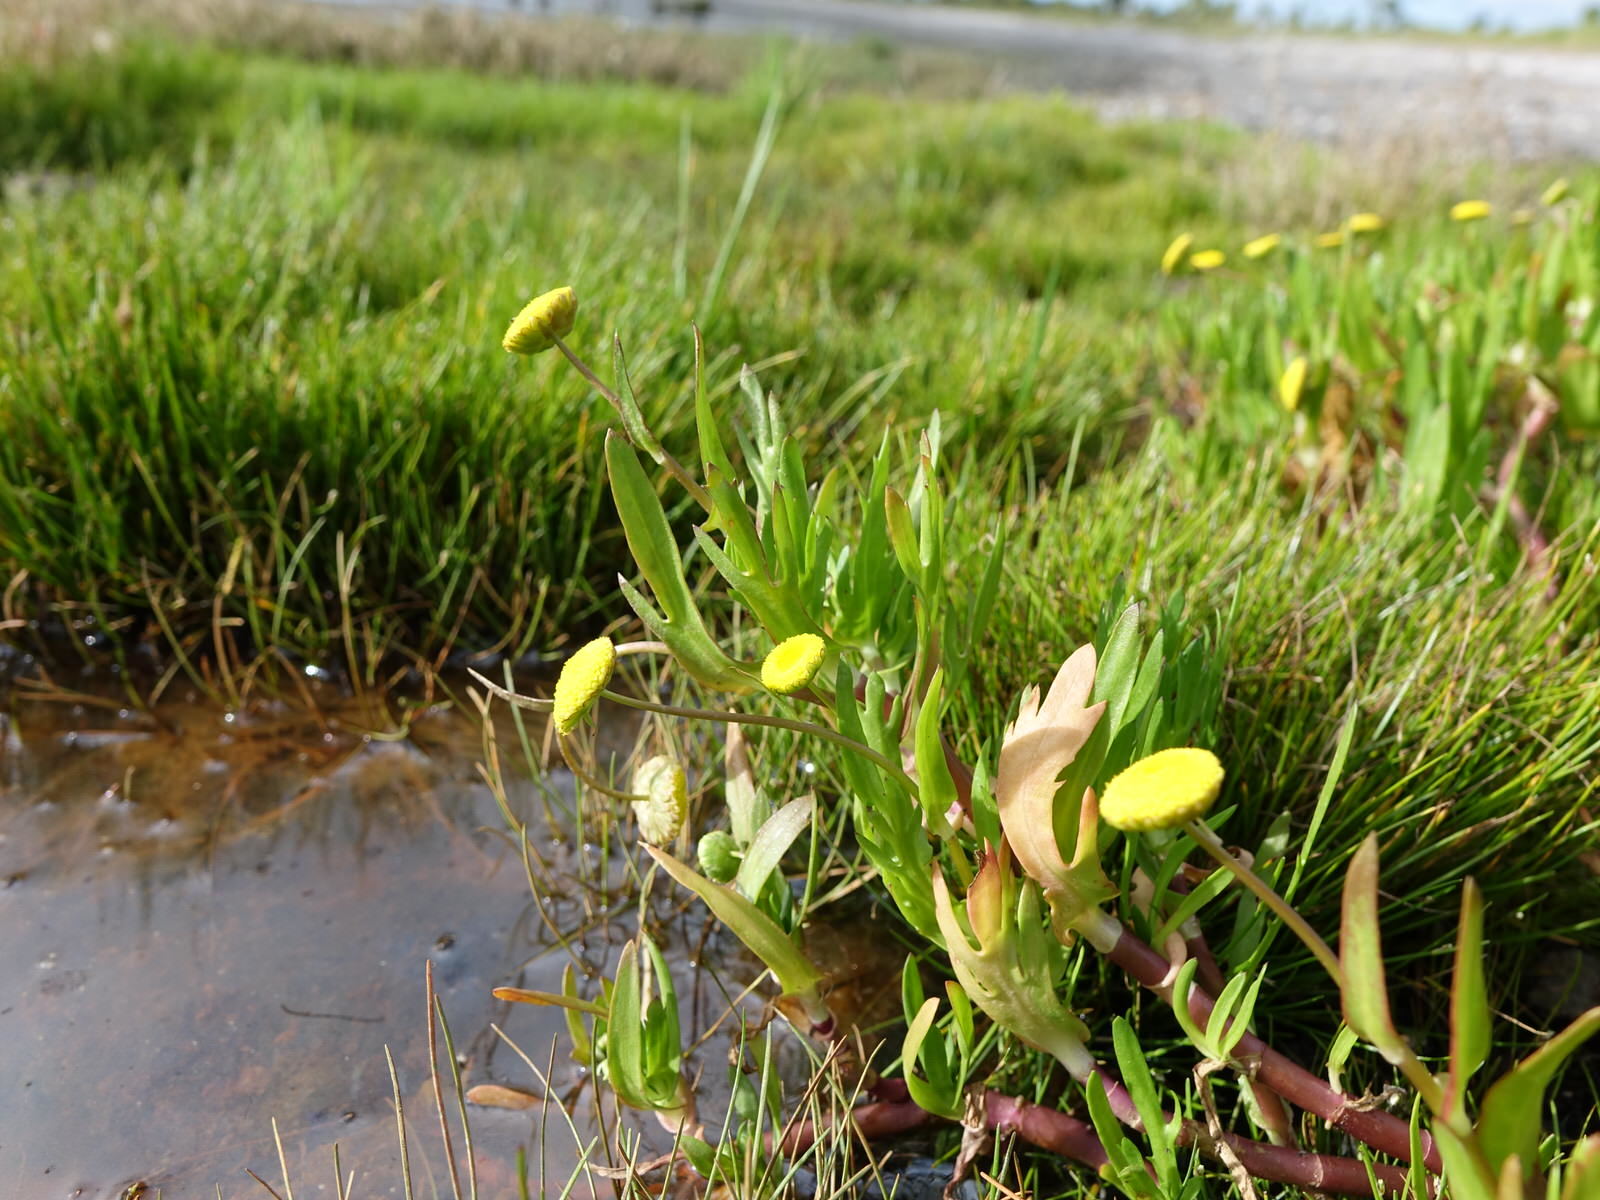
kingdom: Plantae
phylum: Tracheophyta
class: Magnoliopsida
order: Asterales
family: Asteraceae
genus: Cotula
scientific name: Cotula coronopifolia
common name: Buttonweed
